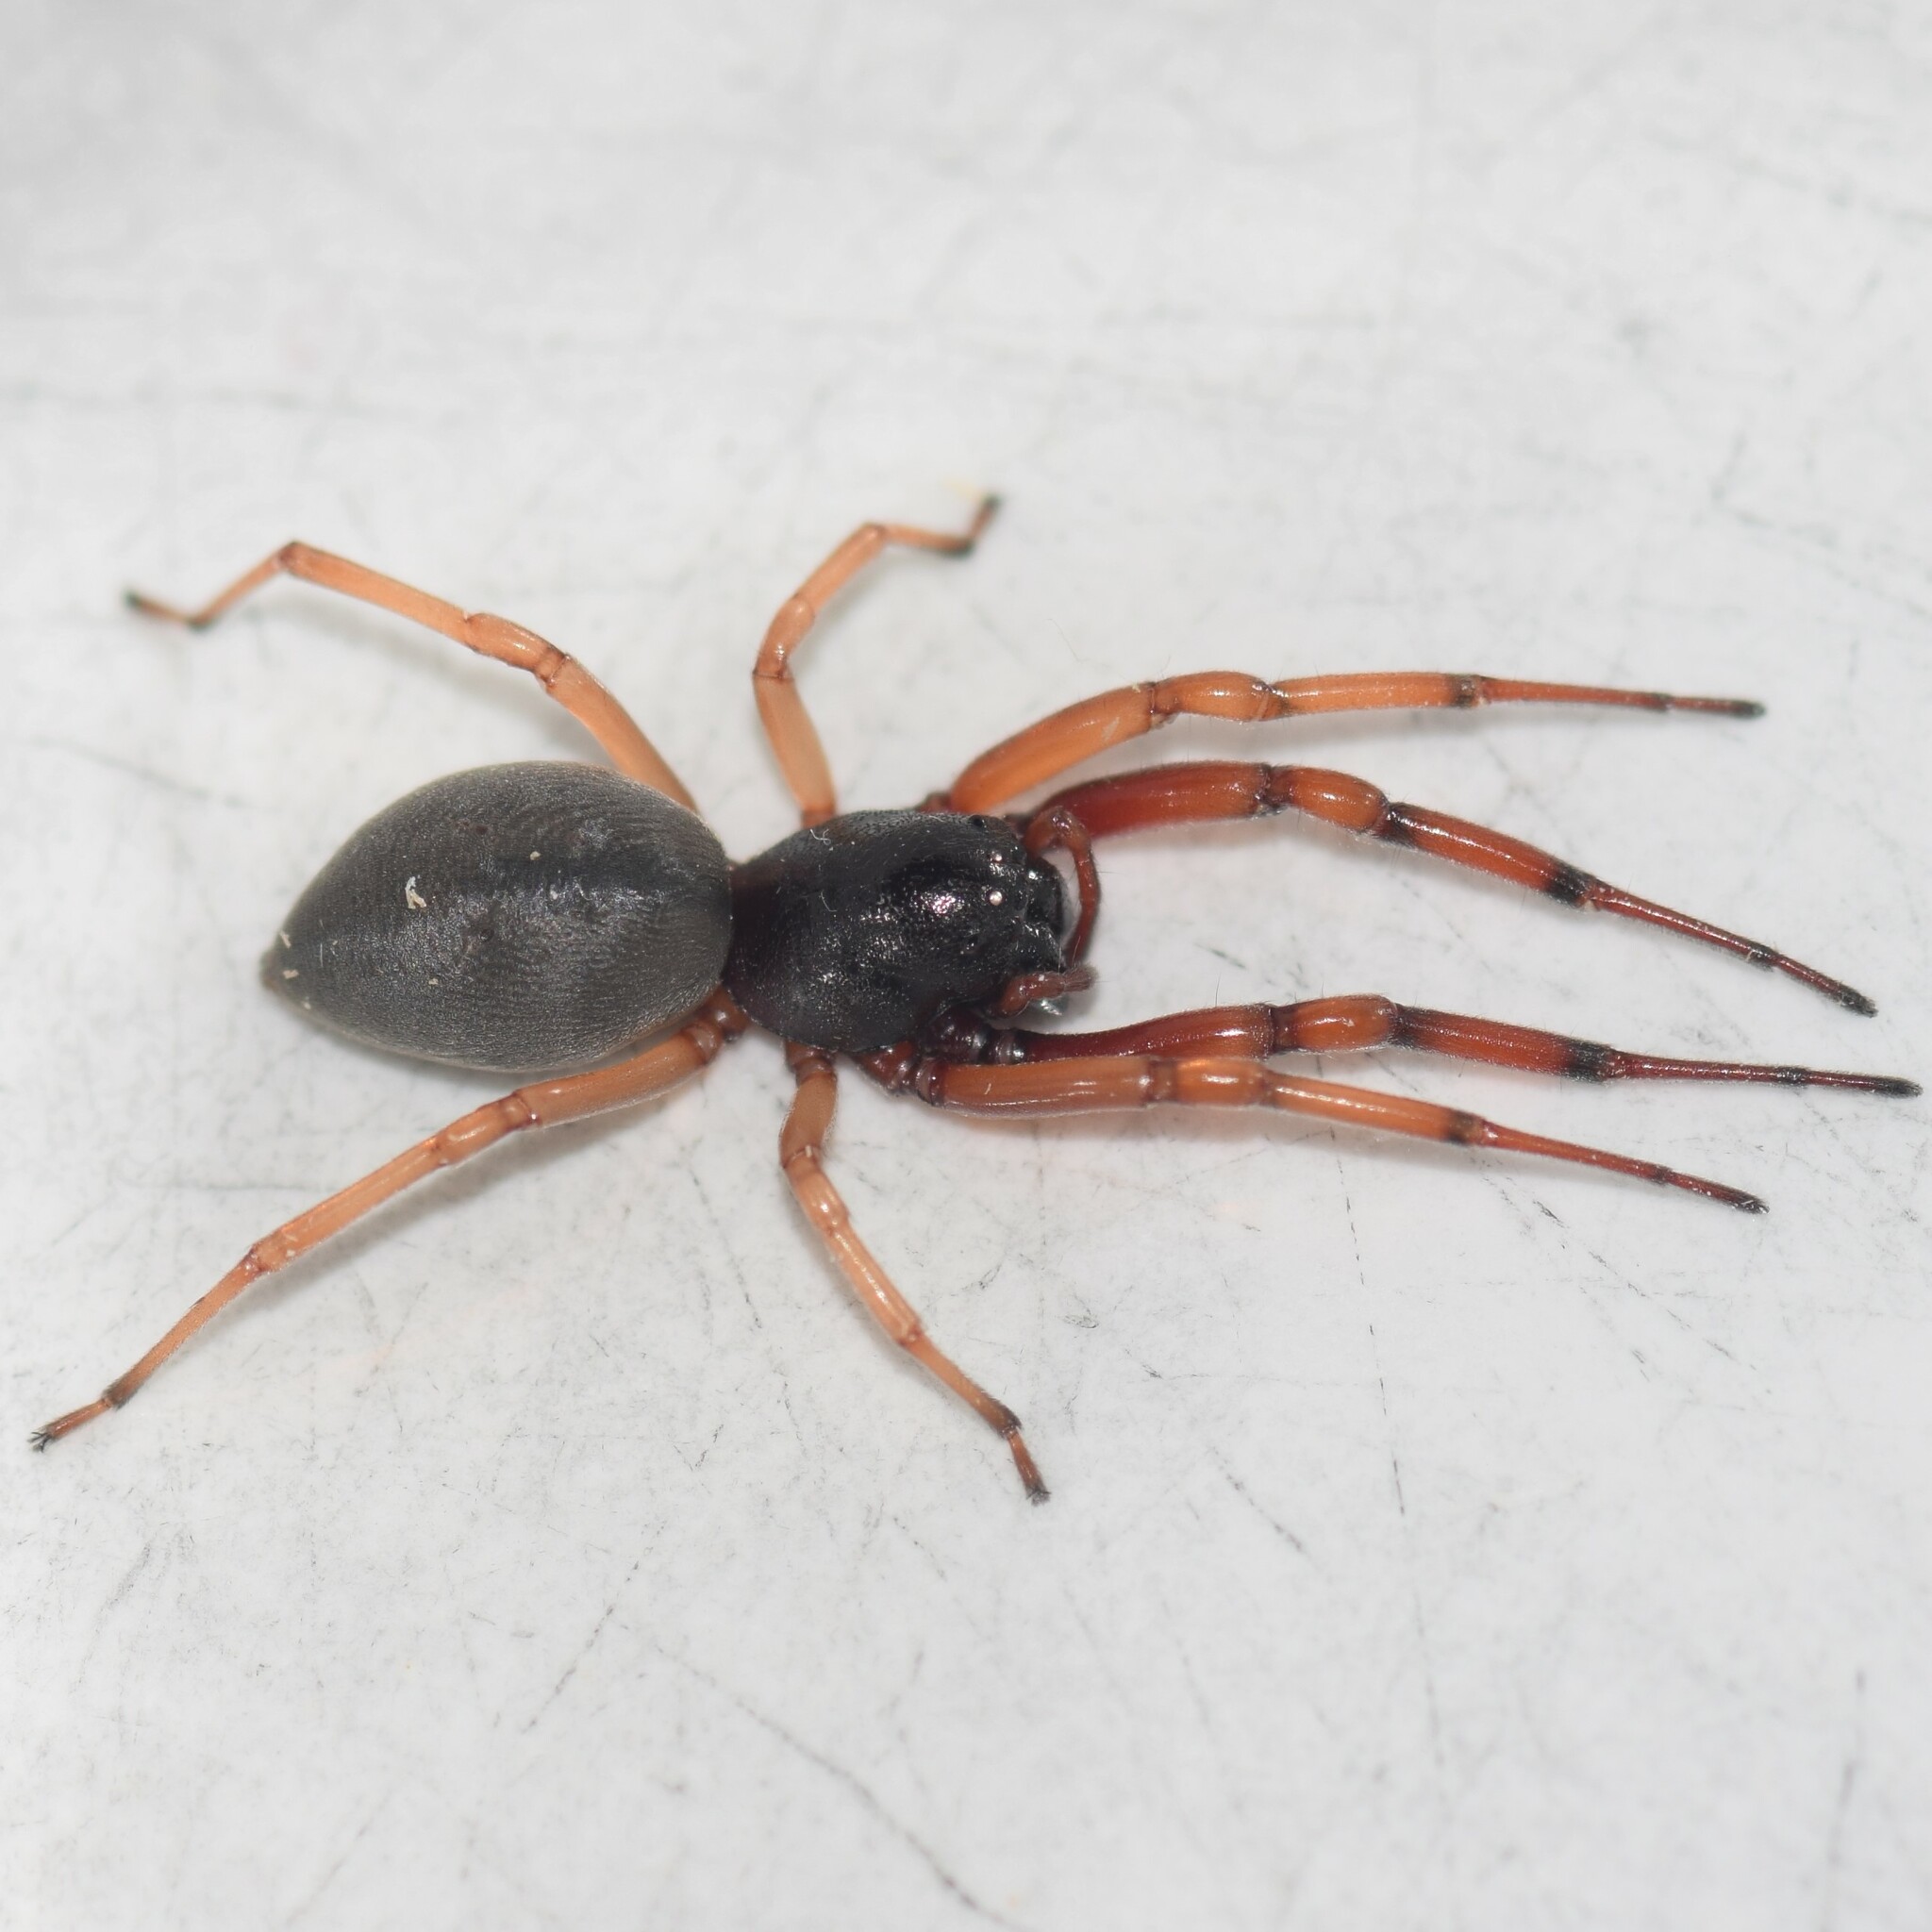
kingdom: Animalia
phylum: Arthropoda
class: Arachnida
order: Araneae
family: Trachelidae
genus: Trachelas
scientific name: Trachelas tranquillus
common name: Broad-faced sac spider
